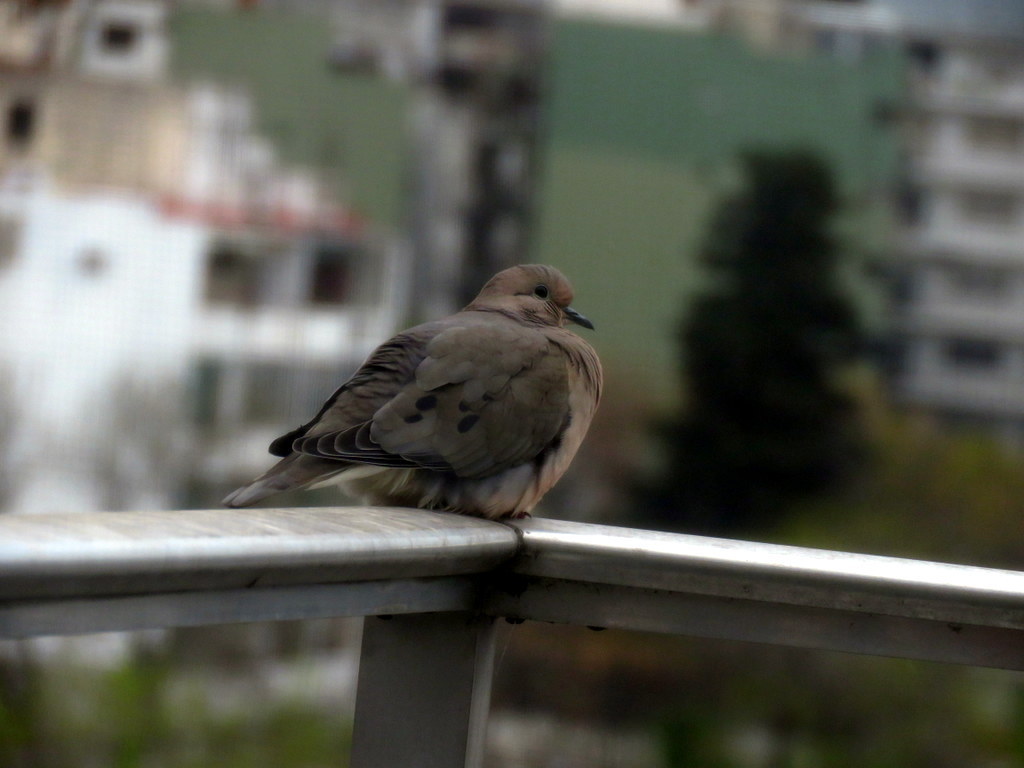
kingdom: Animalia
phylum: Chordata
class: Aves
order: Columbiformes
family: Columbidae
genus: Zenaida
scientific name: Zenaida auriculata
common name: Eared dove
